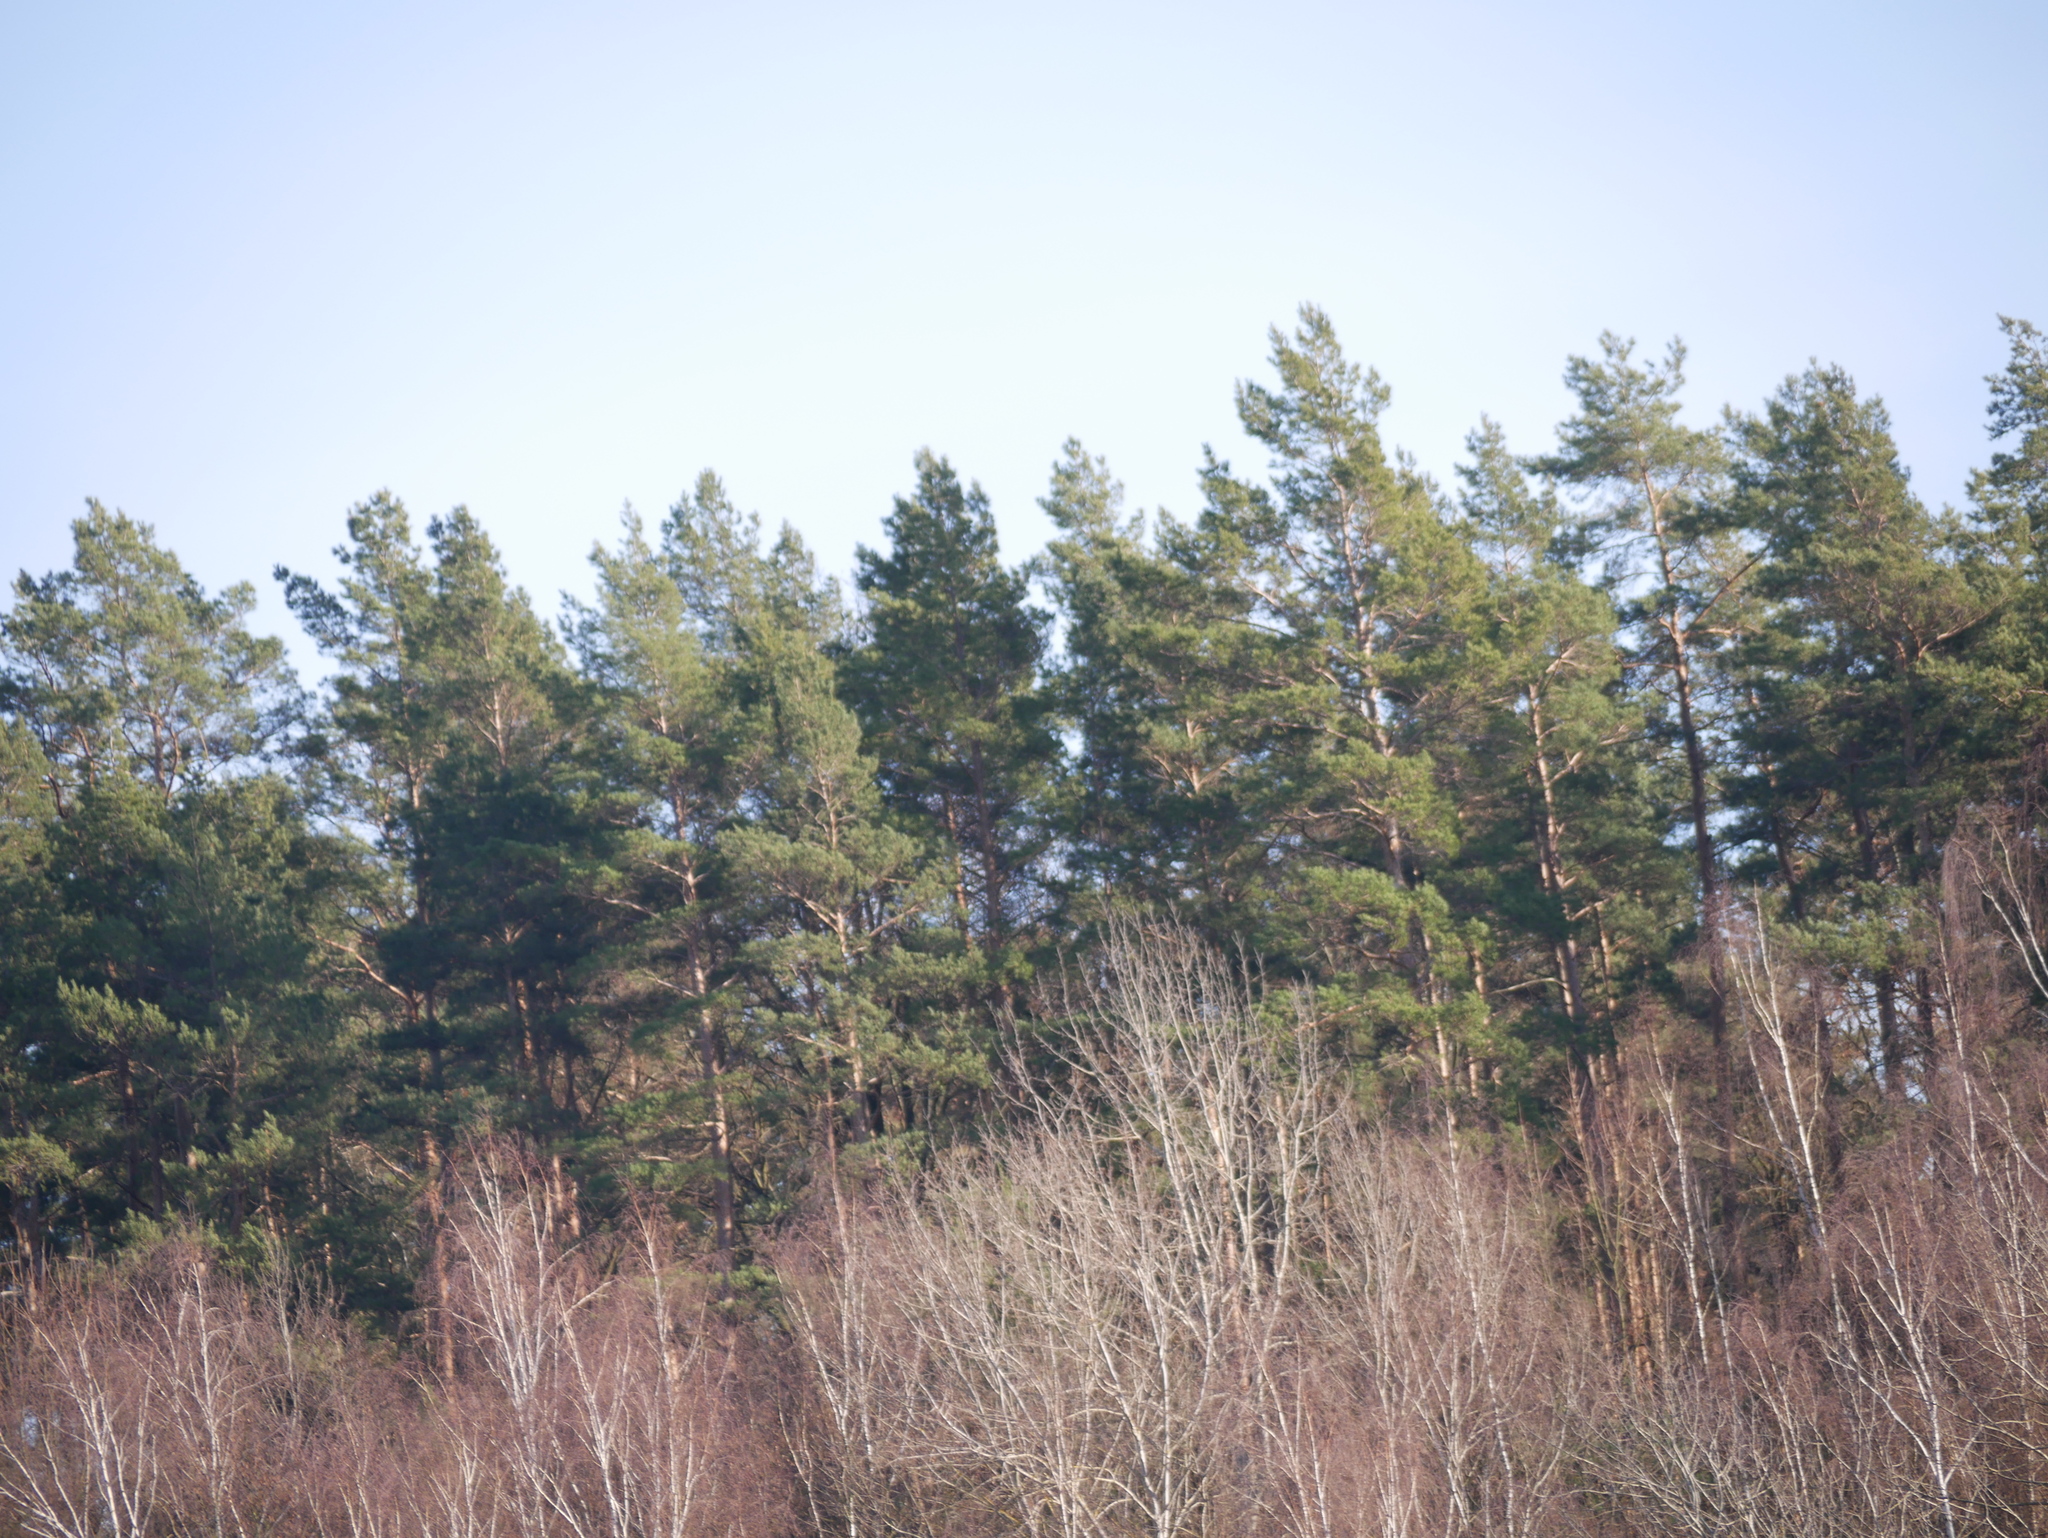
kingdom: Plantae
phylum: Tracheophyta
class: Pinopsida
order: Pinales
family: Pinaceae
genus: Pinus
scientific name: Pinus sylvestris
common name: Scots pine
